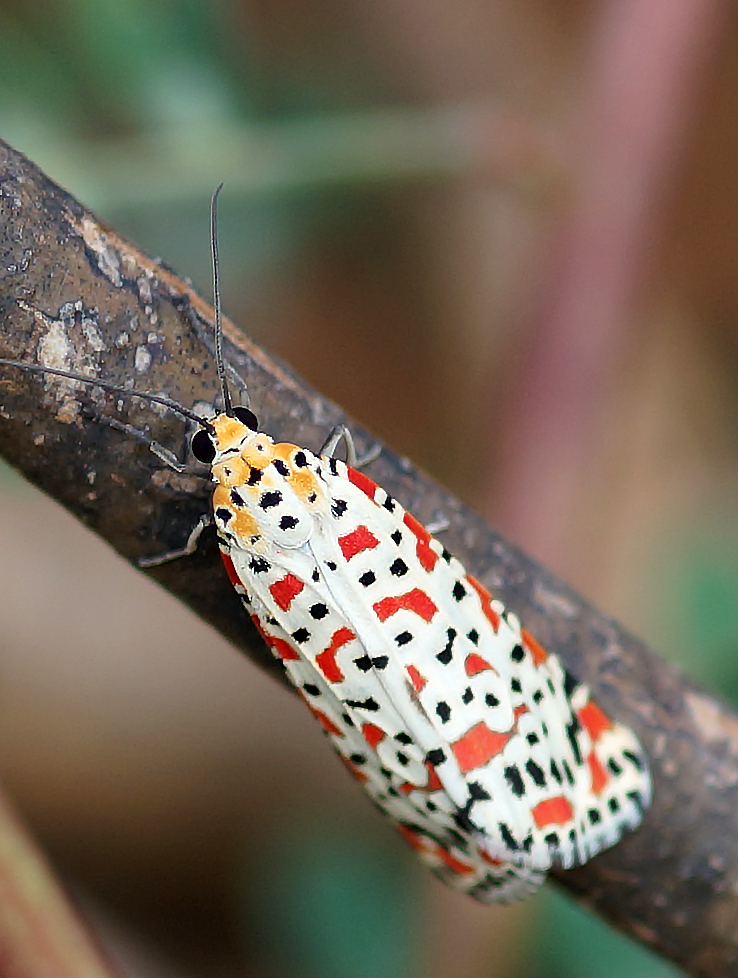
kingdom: Animalia
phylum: Arthropoda
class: Insecta
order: Lepidoptera
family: Erebidae
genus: Utetheisa
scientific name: Utetheisa pulchella
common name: Crimson speckled
